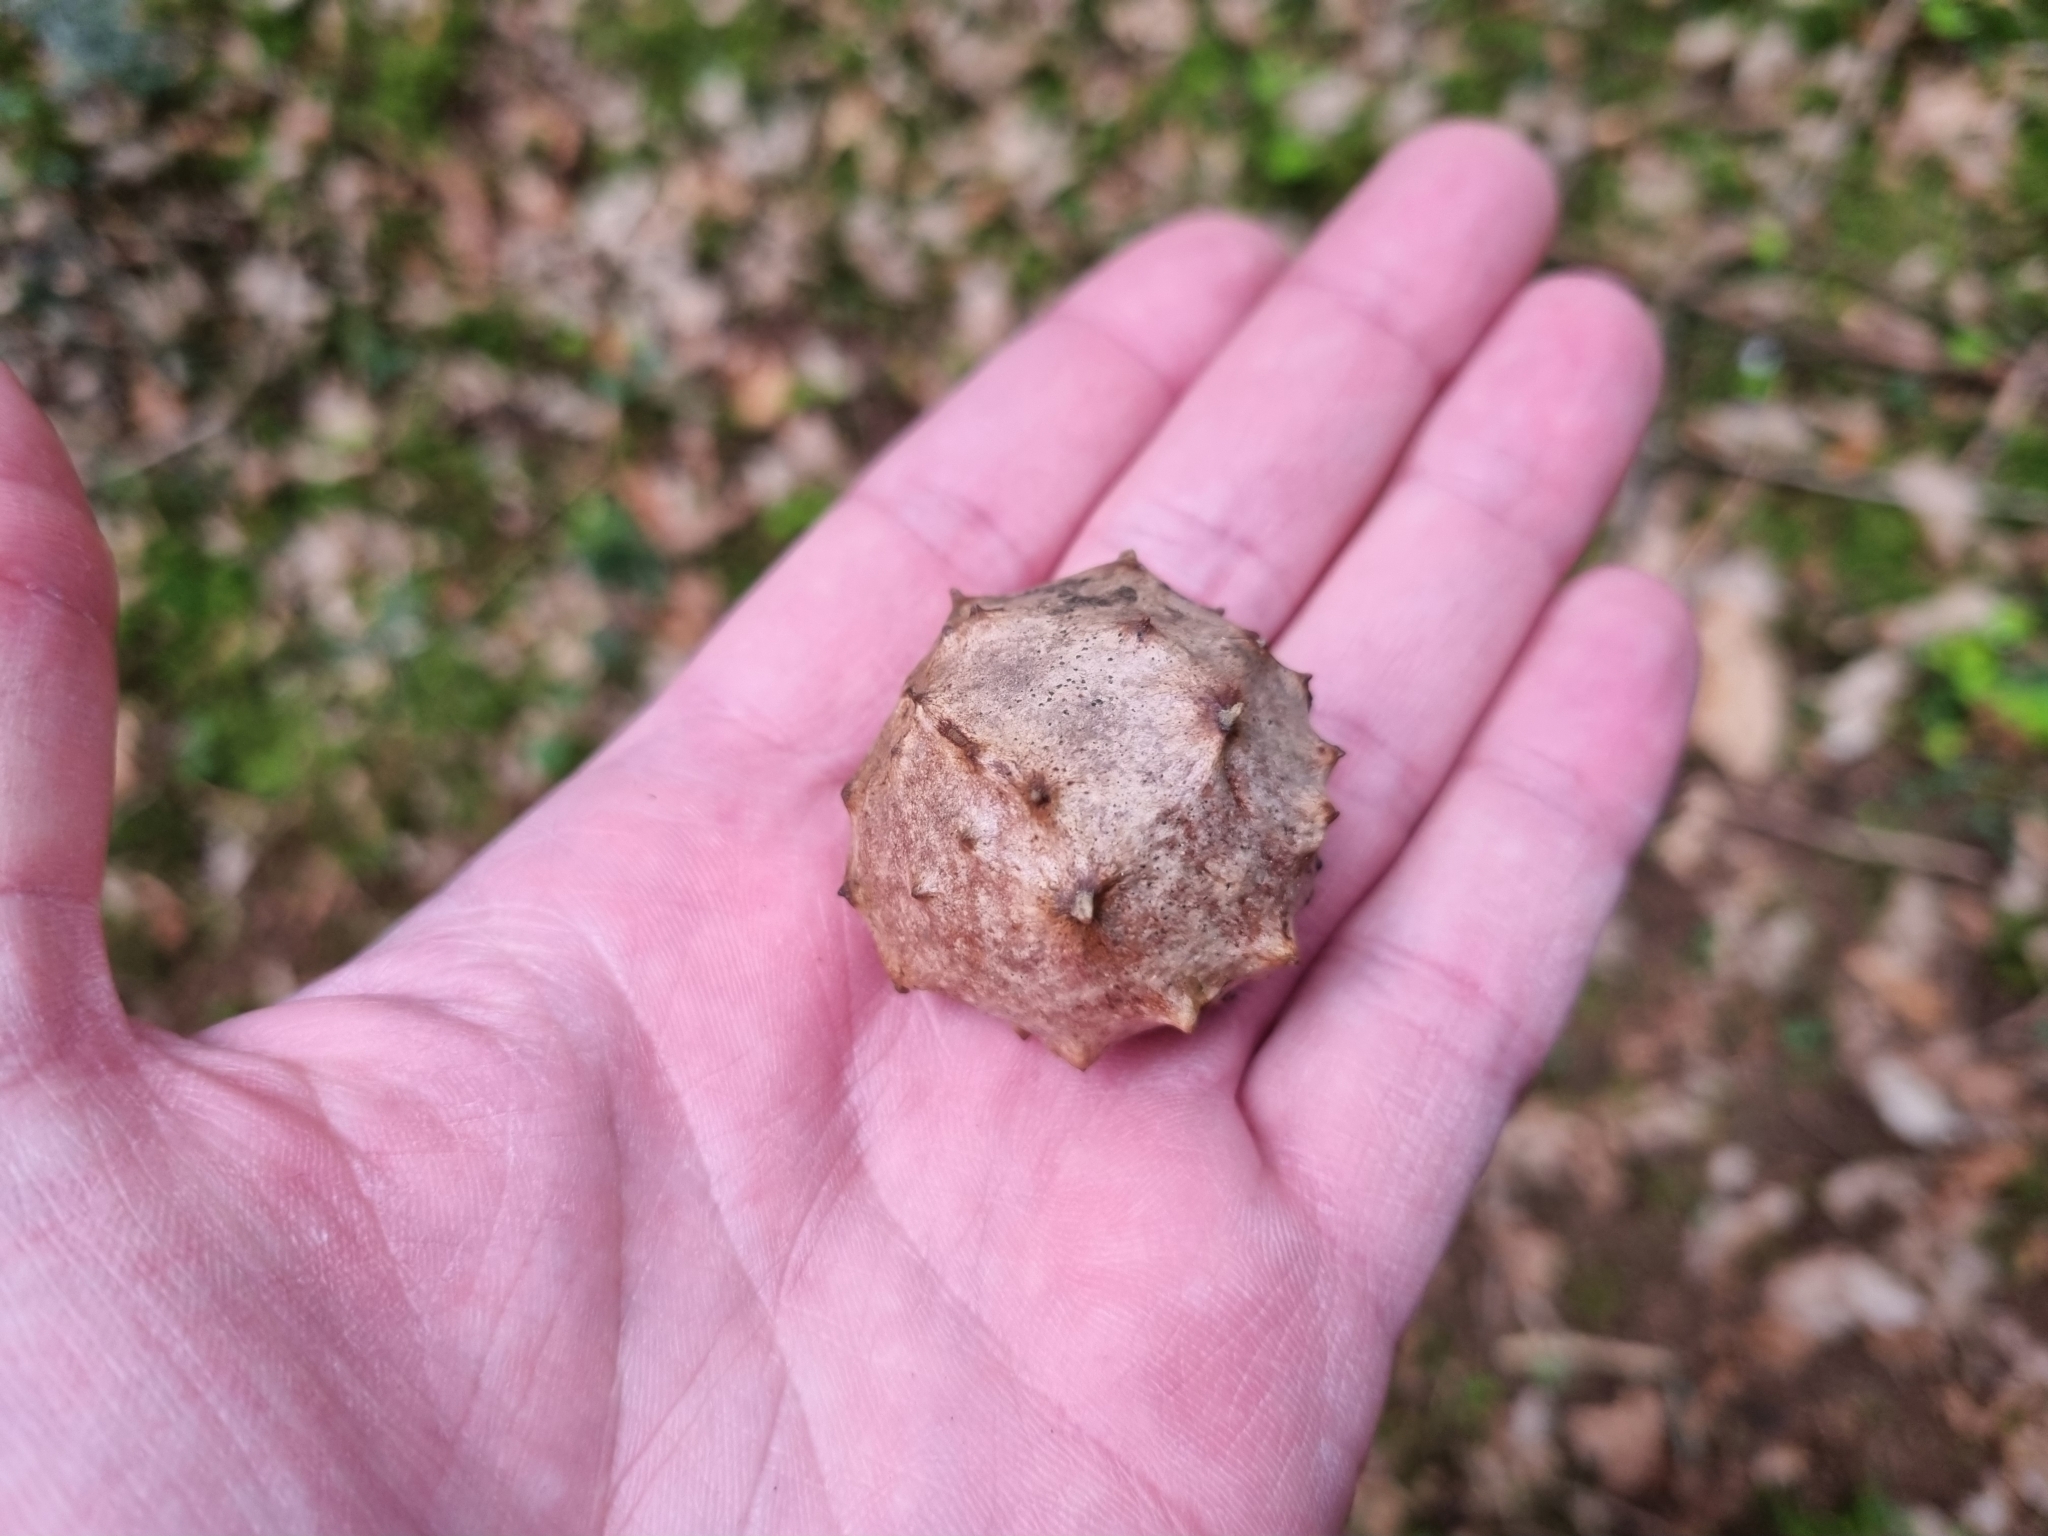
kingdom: Animalia
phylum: Arthropoda
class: Insecta
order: Hymenoptera
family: Cynipidae
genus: Andricus
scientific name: Andricus hungaricus
